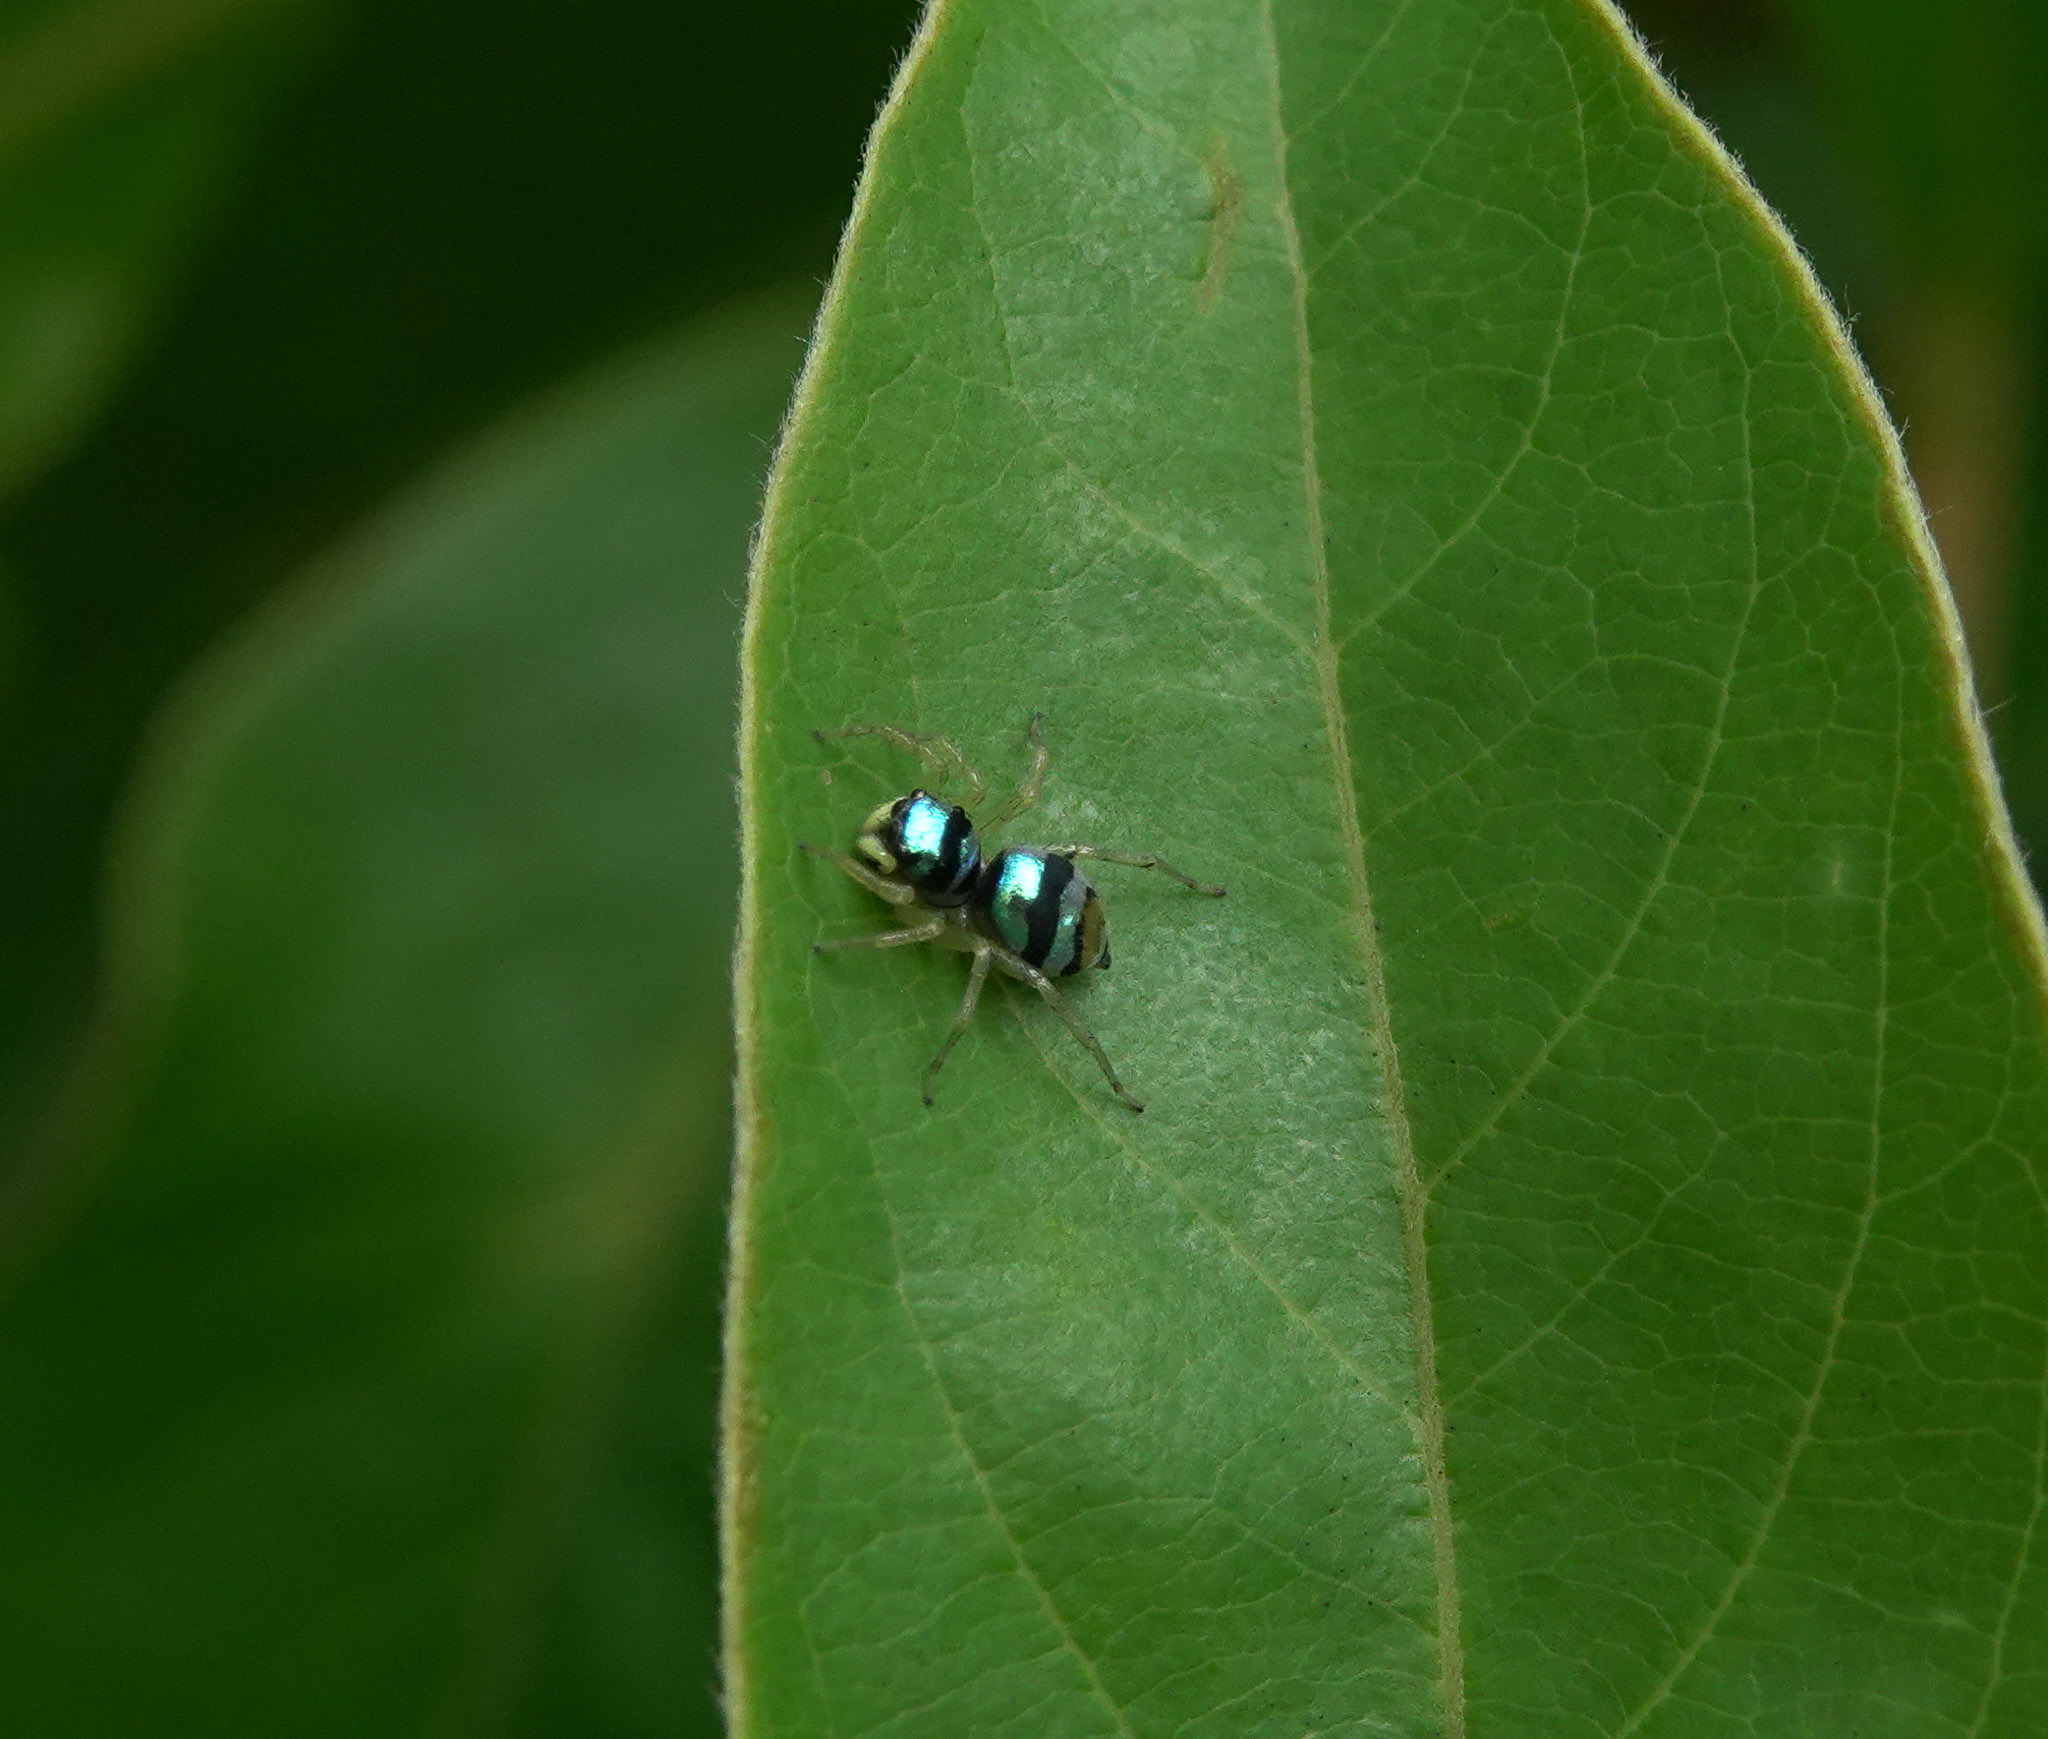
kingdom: Animalia
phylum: Arthropoda
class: Arachnida
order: Araneae
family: Salticidae
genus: Phintella
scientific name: Phintella vittata
